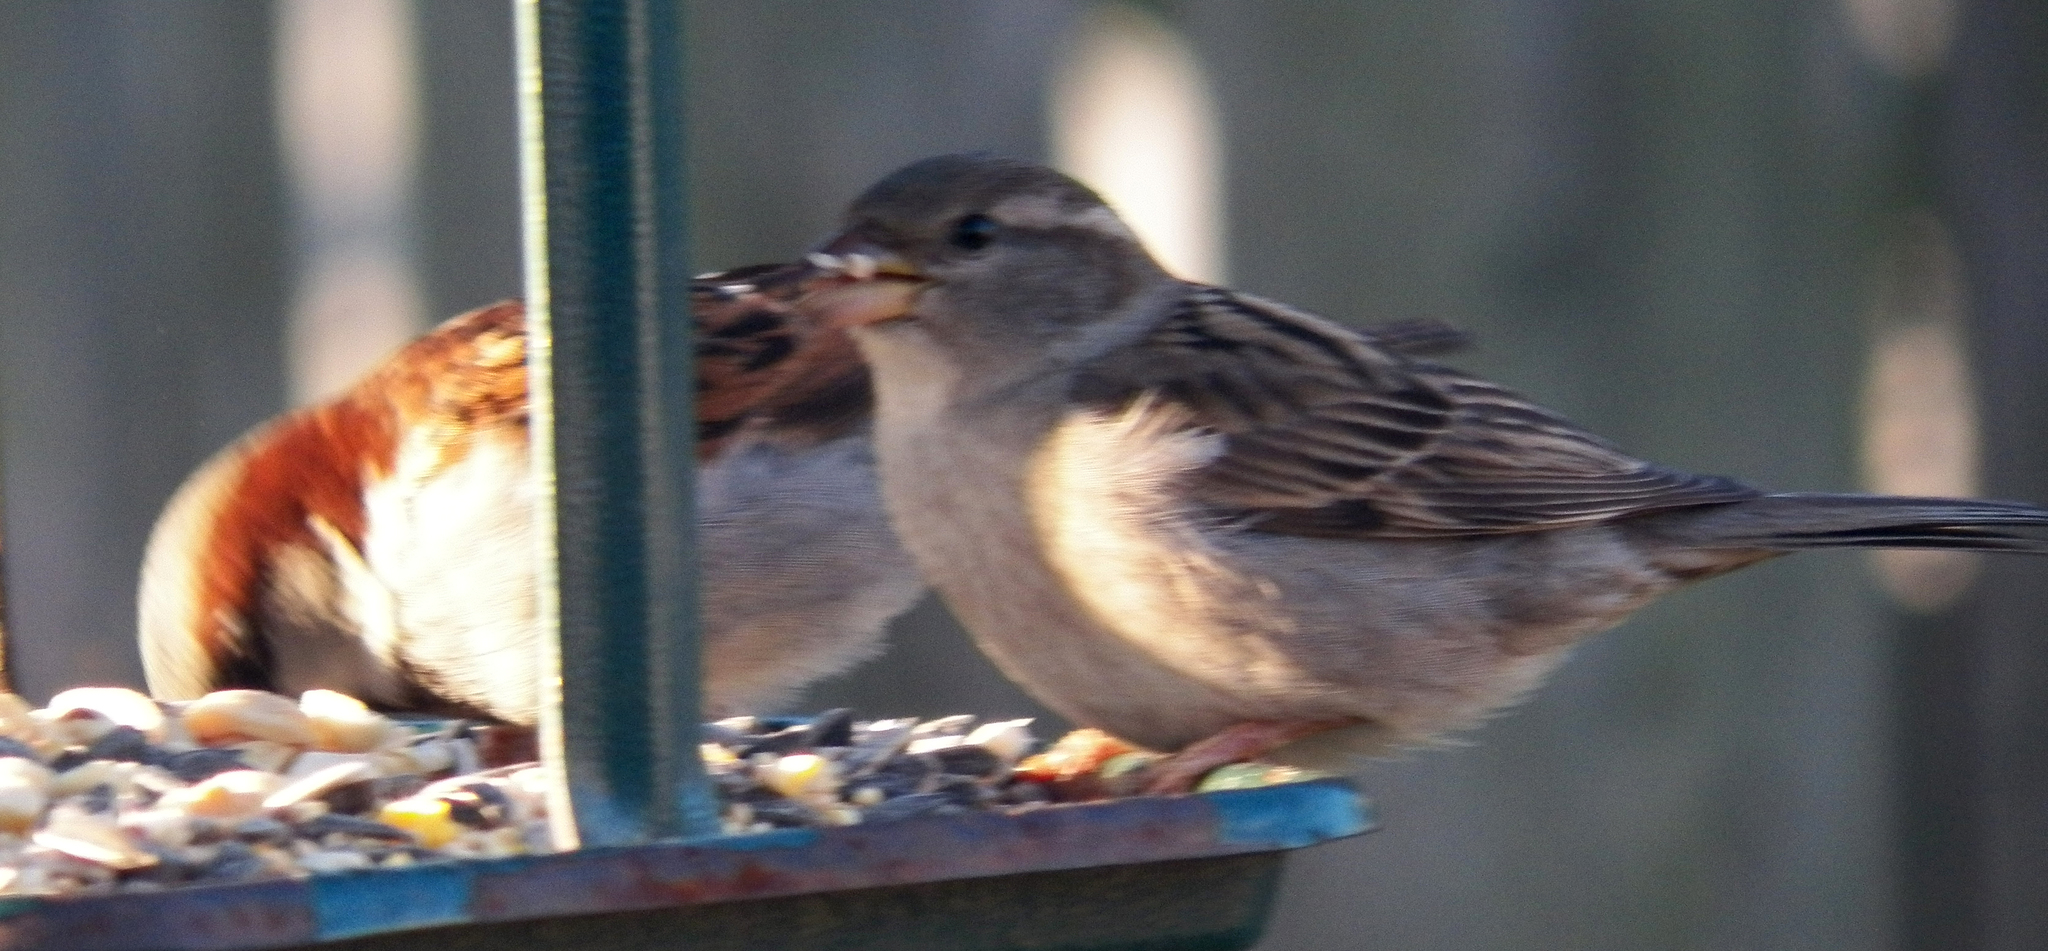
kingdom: Animalia
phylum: Chordata
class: Aves
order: Passeriformes
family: Passeridae
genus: Passer
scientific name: Passer domesticus
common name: House sparrow
